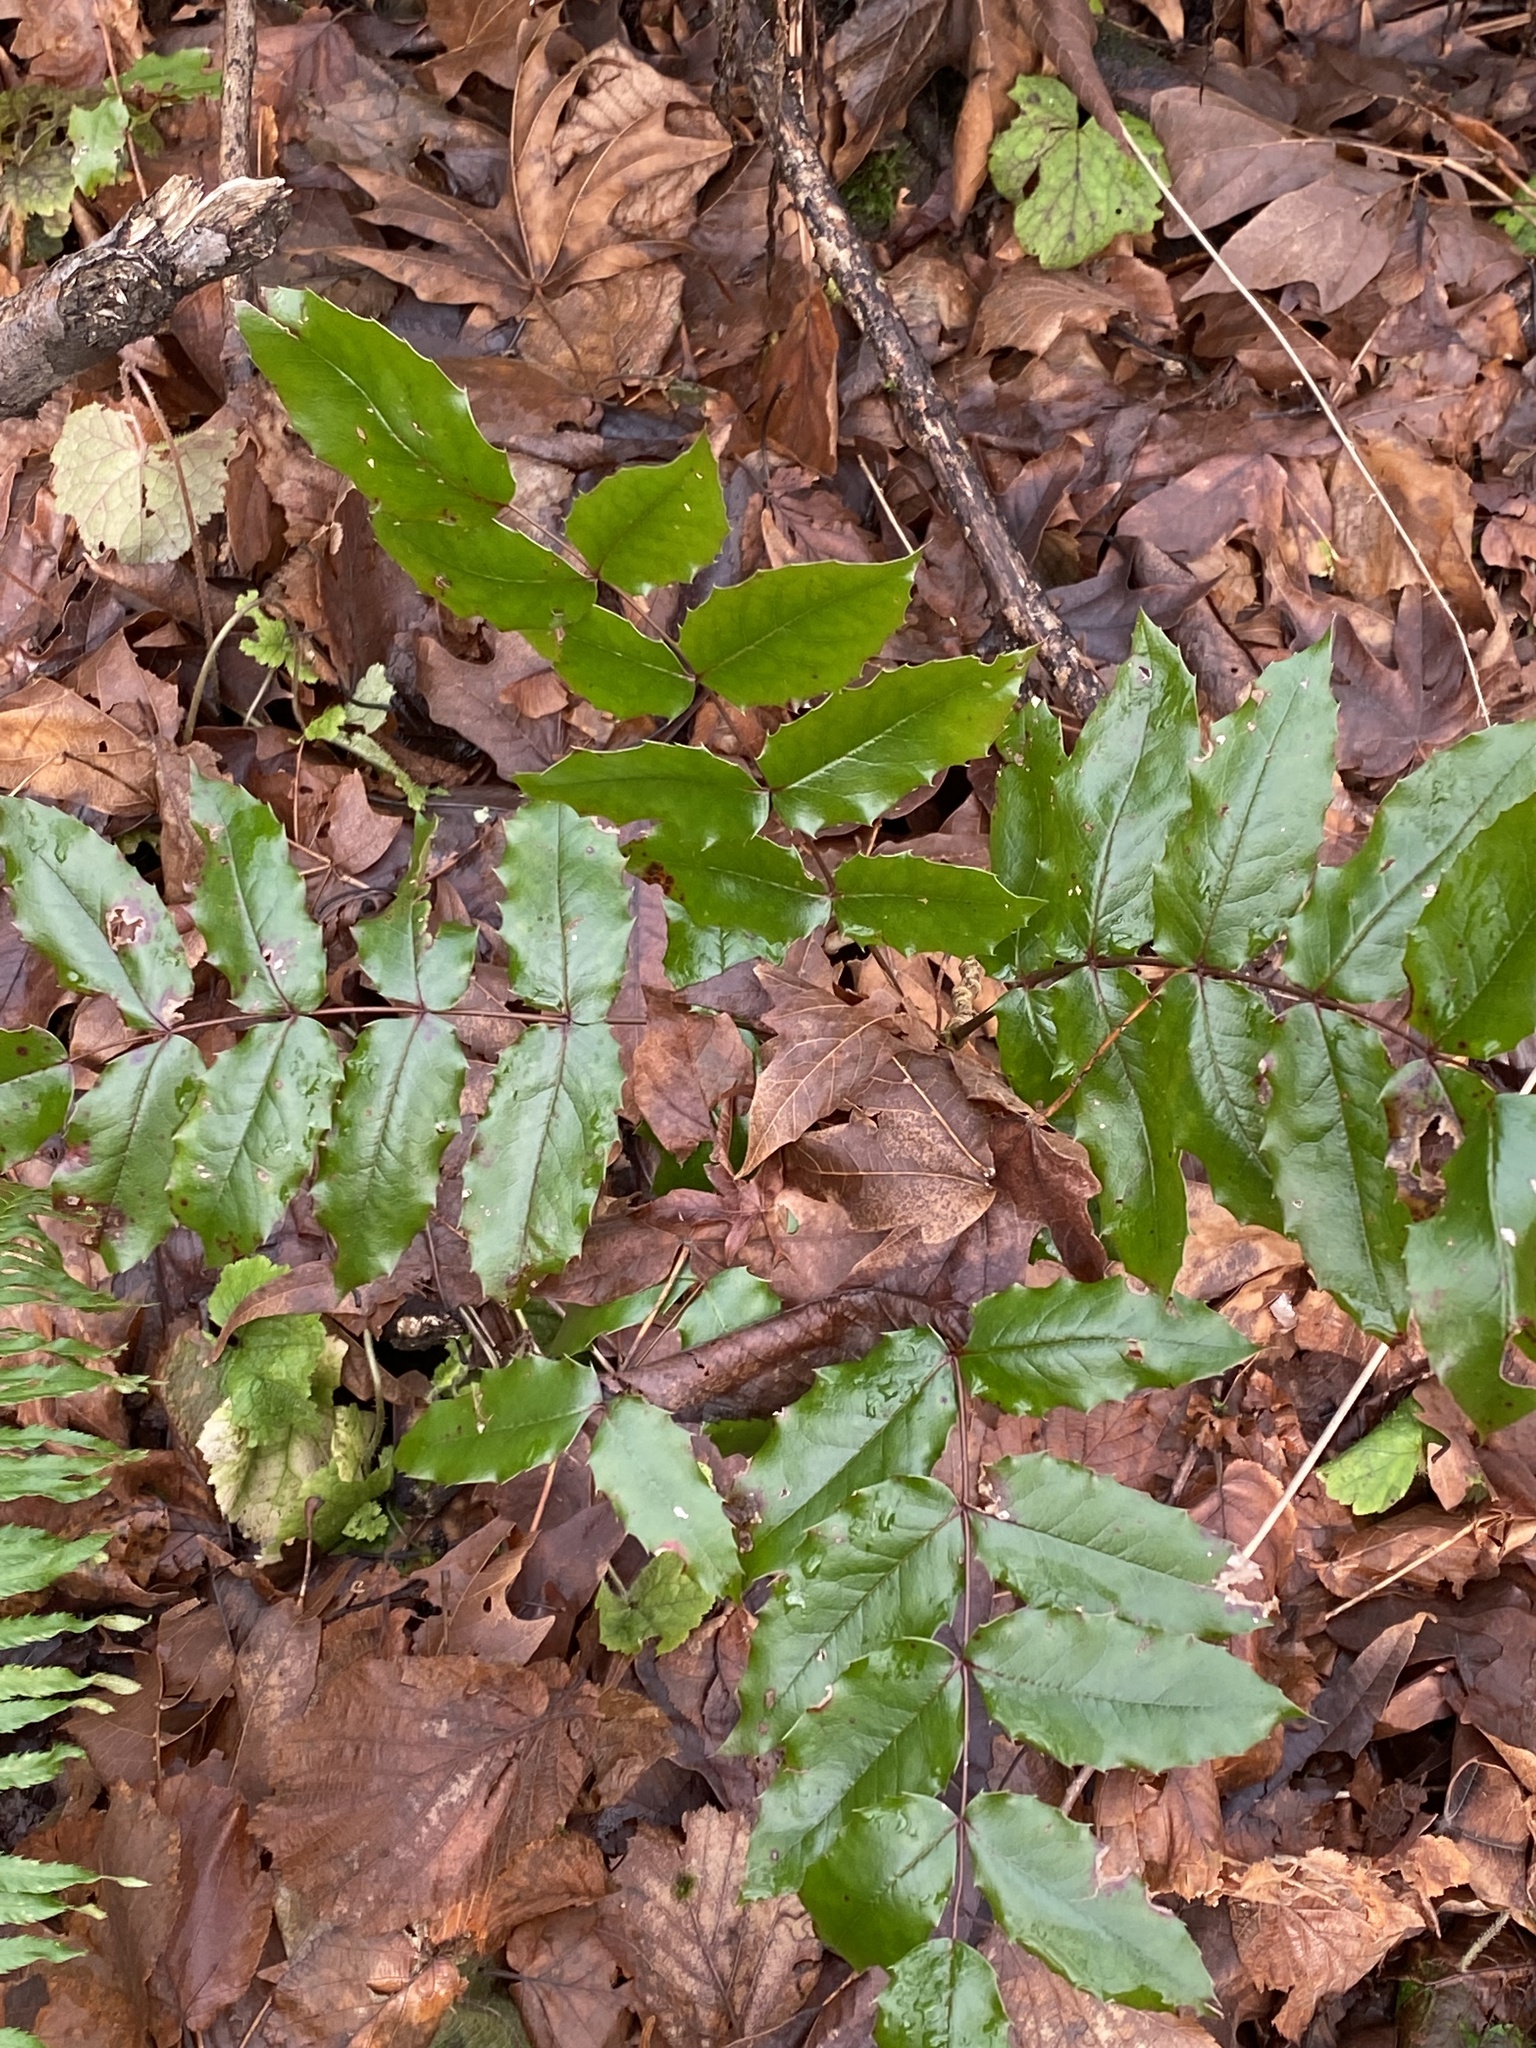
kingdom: Plantae
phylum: Tracheophyta
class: Magnoliopsida
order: Ranunculales
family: Berberidaceae
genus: Mahonia
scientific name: Mahonia aquifolium
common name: Oregon-grape
